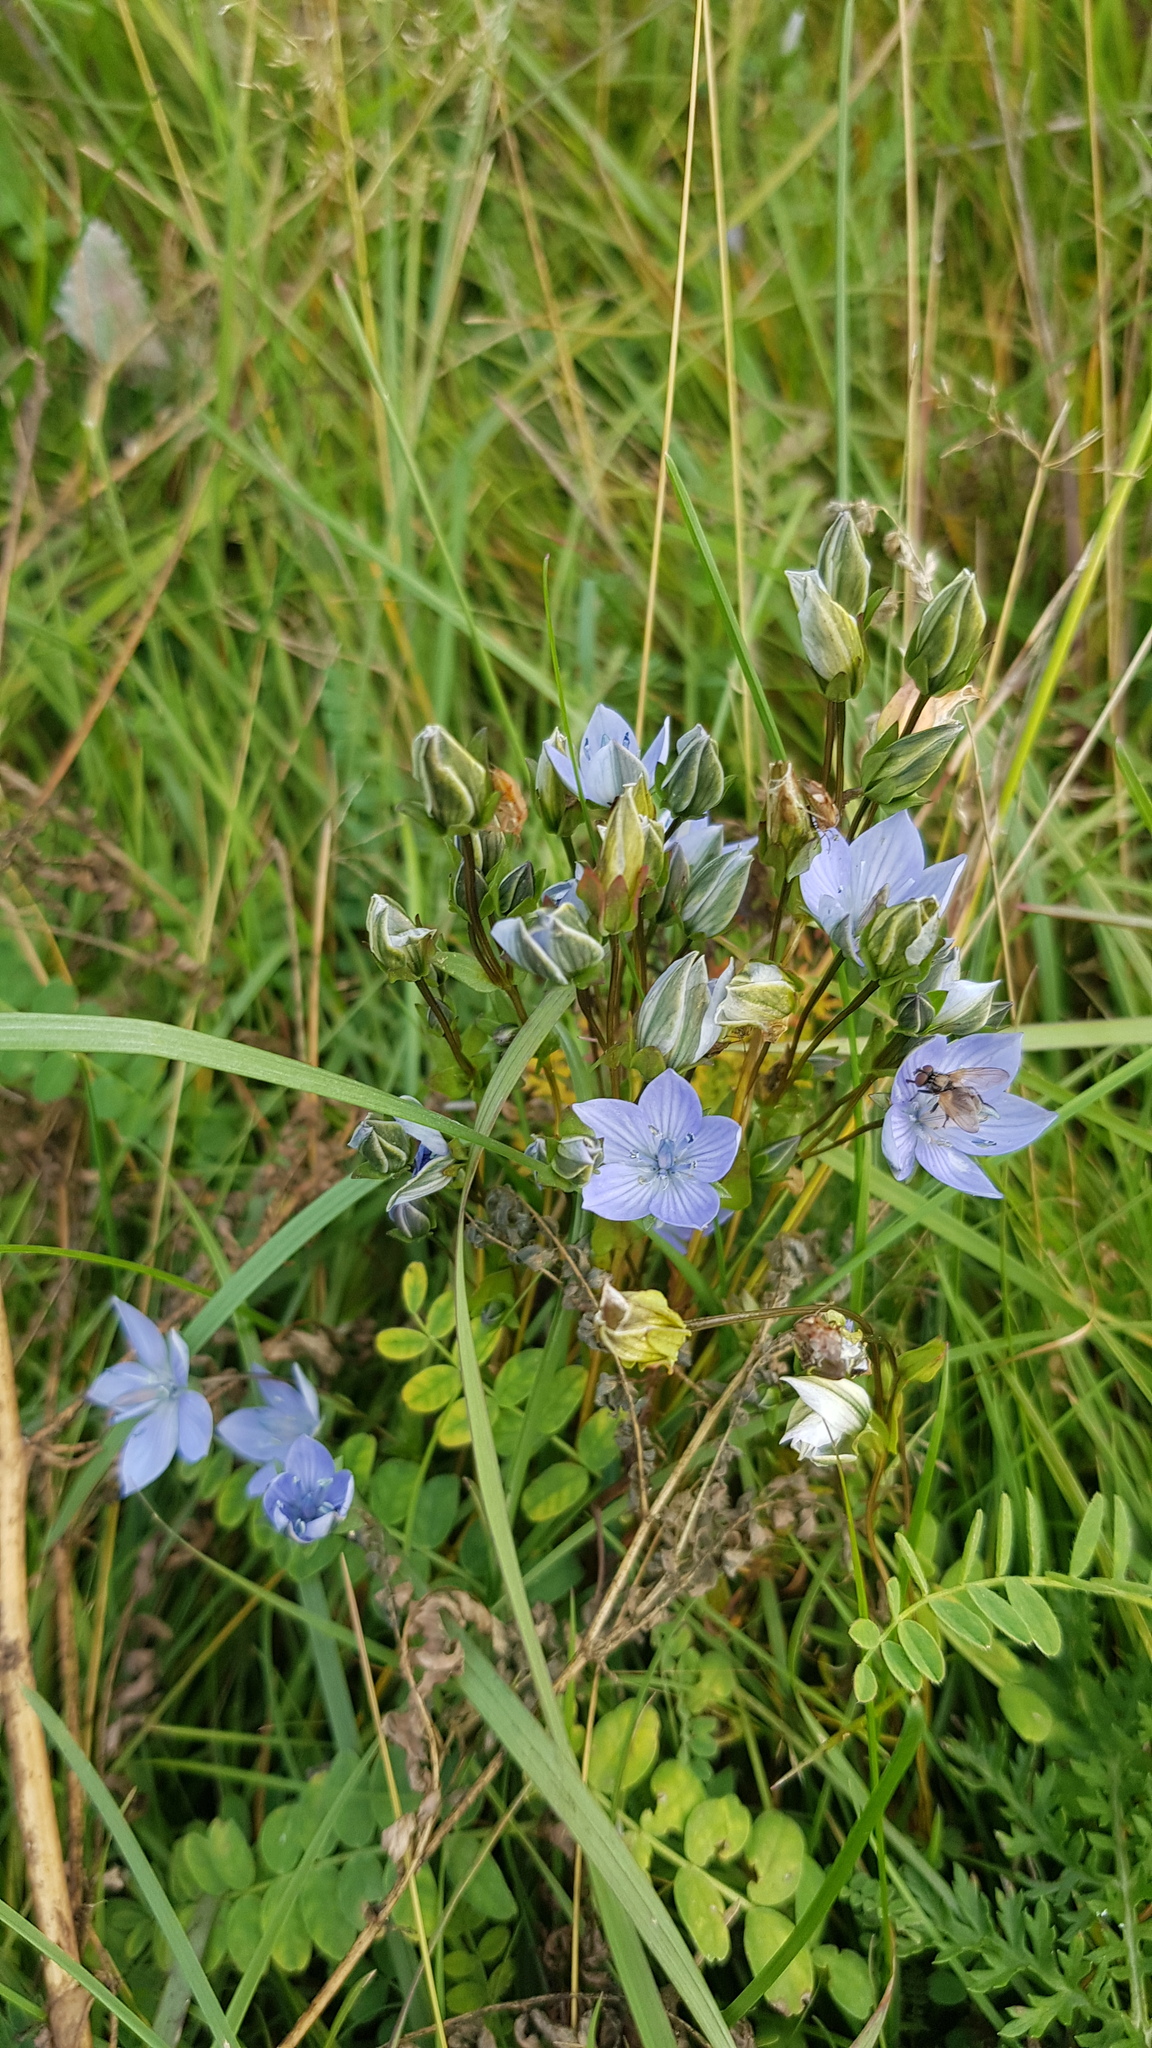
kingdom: Plantae
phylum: Tracheophyta
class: Magnoliopsida
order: Gentianales
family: Gentianaceae
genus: Lomatogonium
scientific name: Lomatogonium carinthiacum
